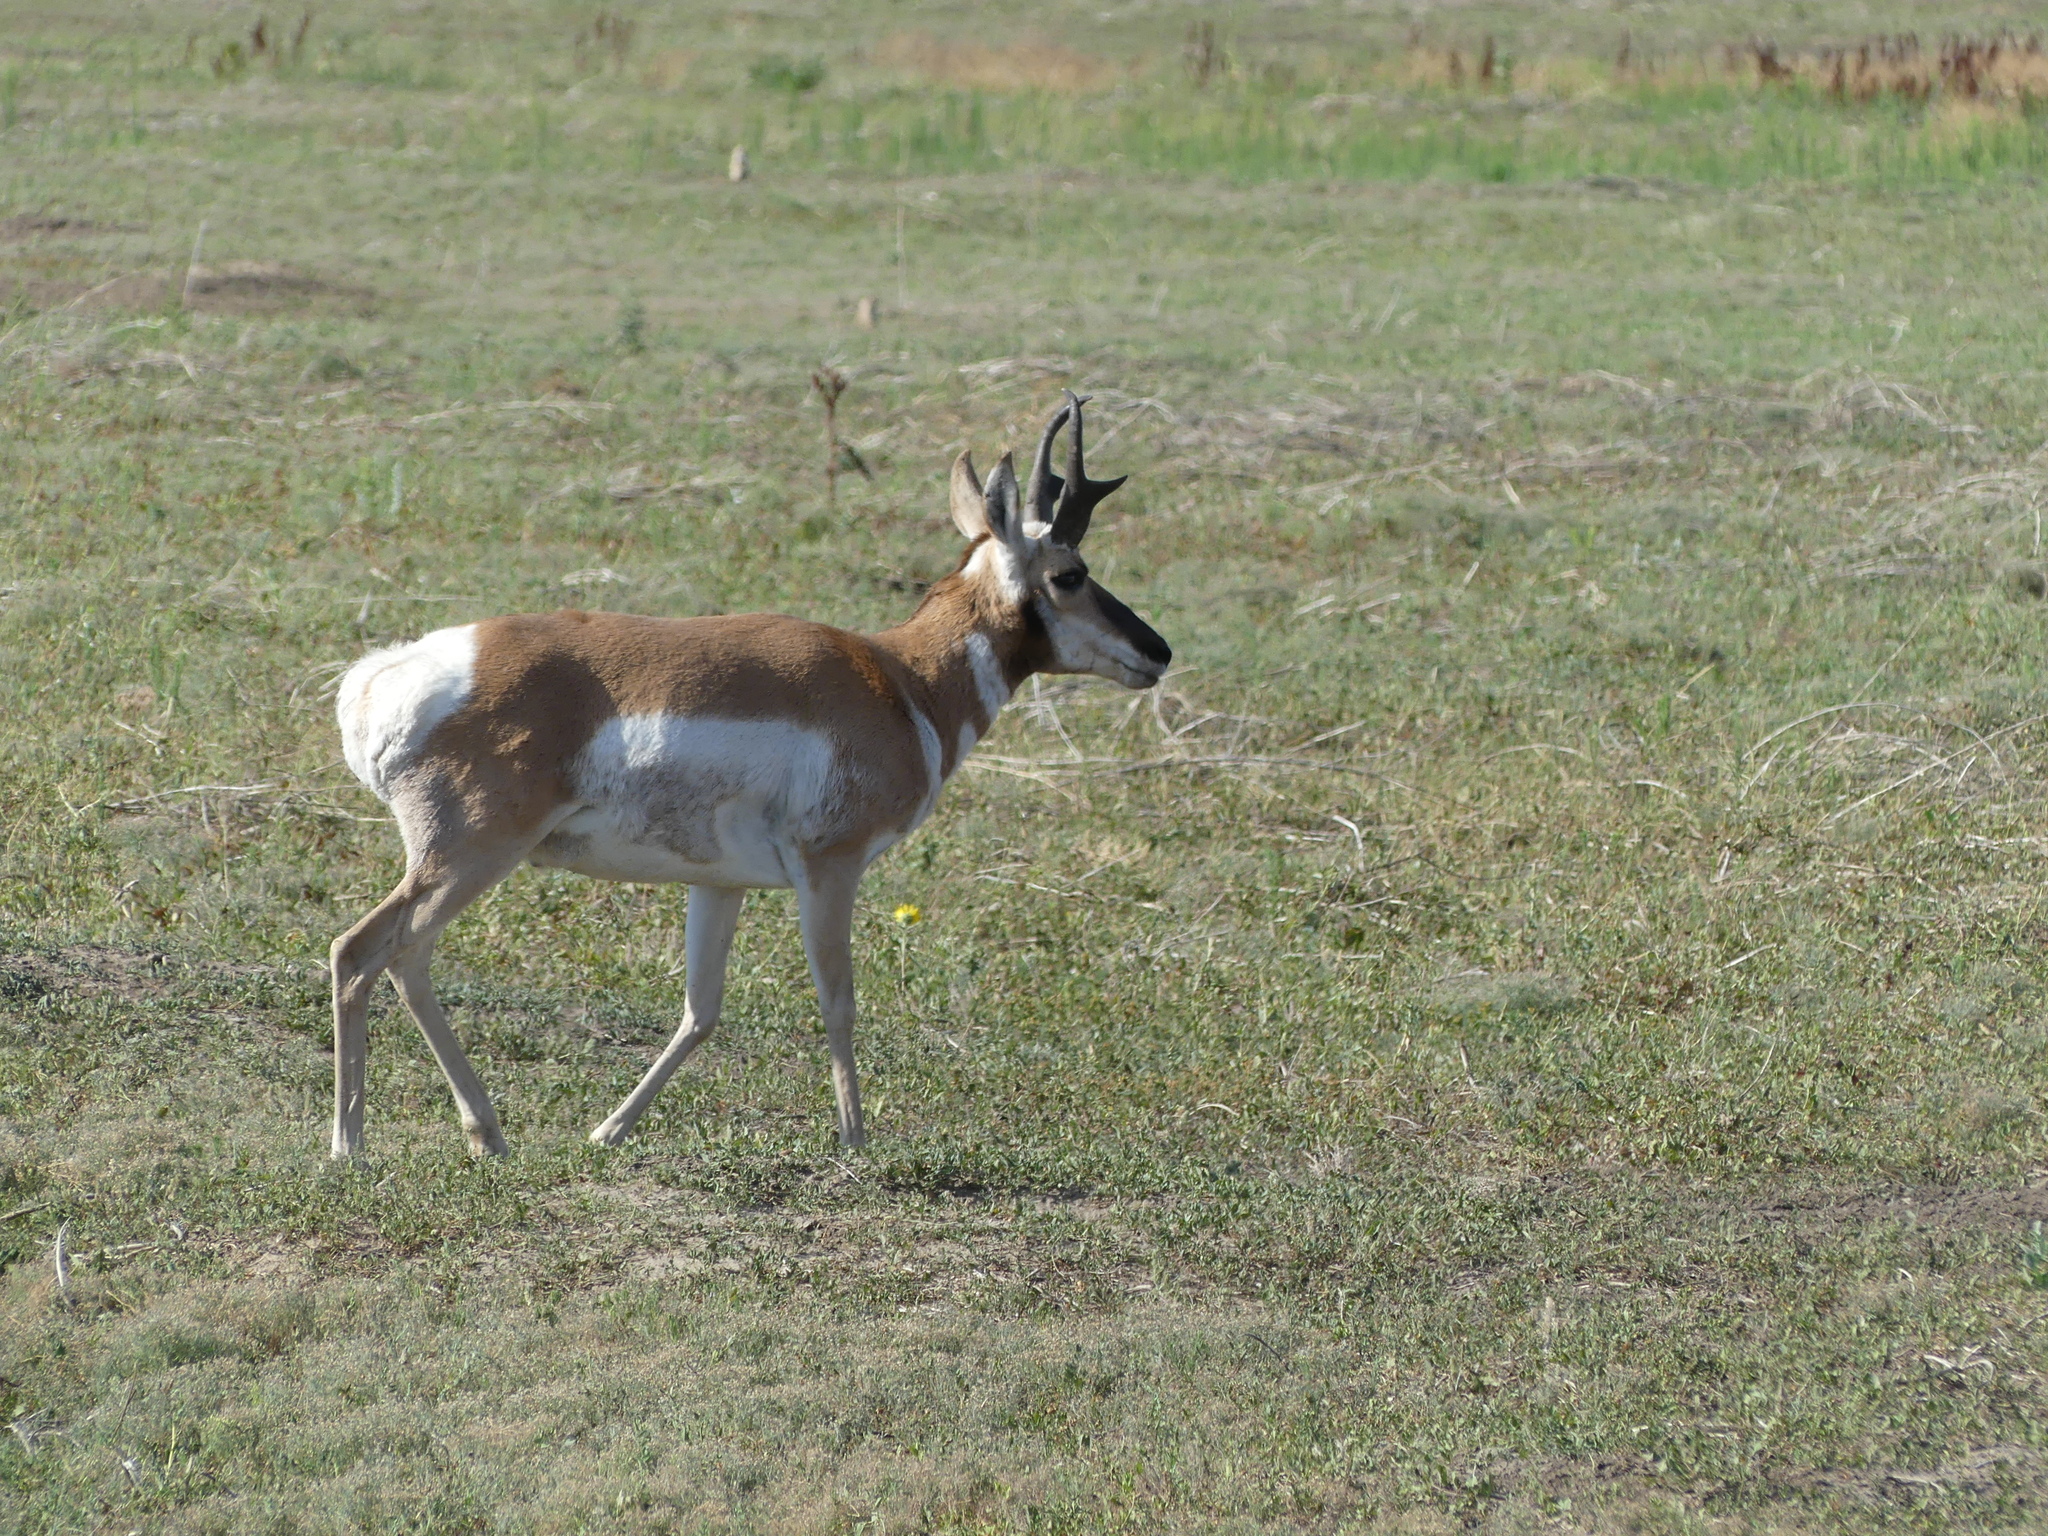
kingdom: Animalia
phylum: Chordata
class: Mammalia
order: Artiodactyla
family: Antilocapridae
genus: Antilocapra
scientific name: Antilocapra americana
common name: Pronghorn
